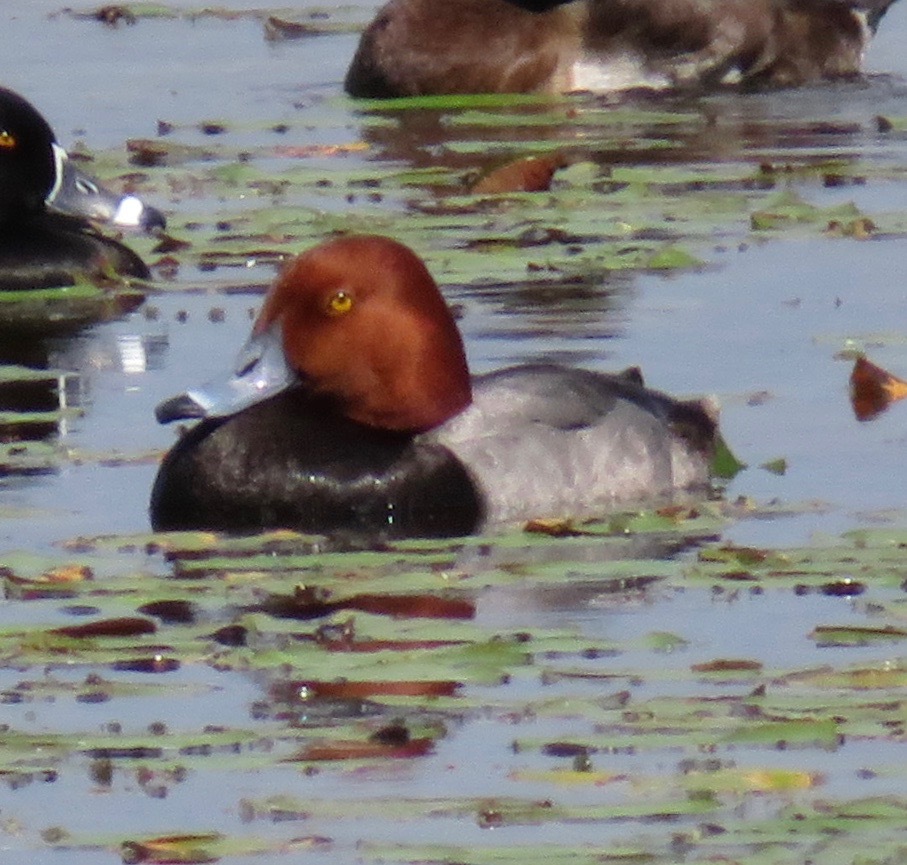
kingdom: Animalia
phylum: Chordata
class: Aves
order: Anseriformes
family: Anatidae
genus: Aythya
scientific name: Aythya americana
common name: Redhead
